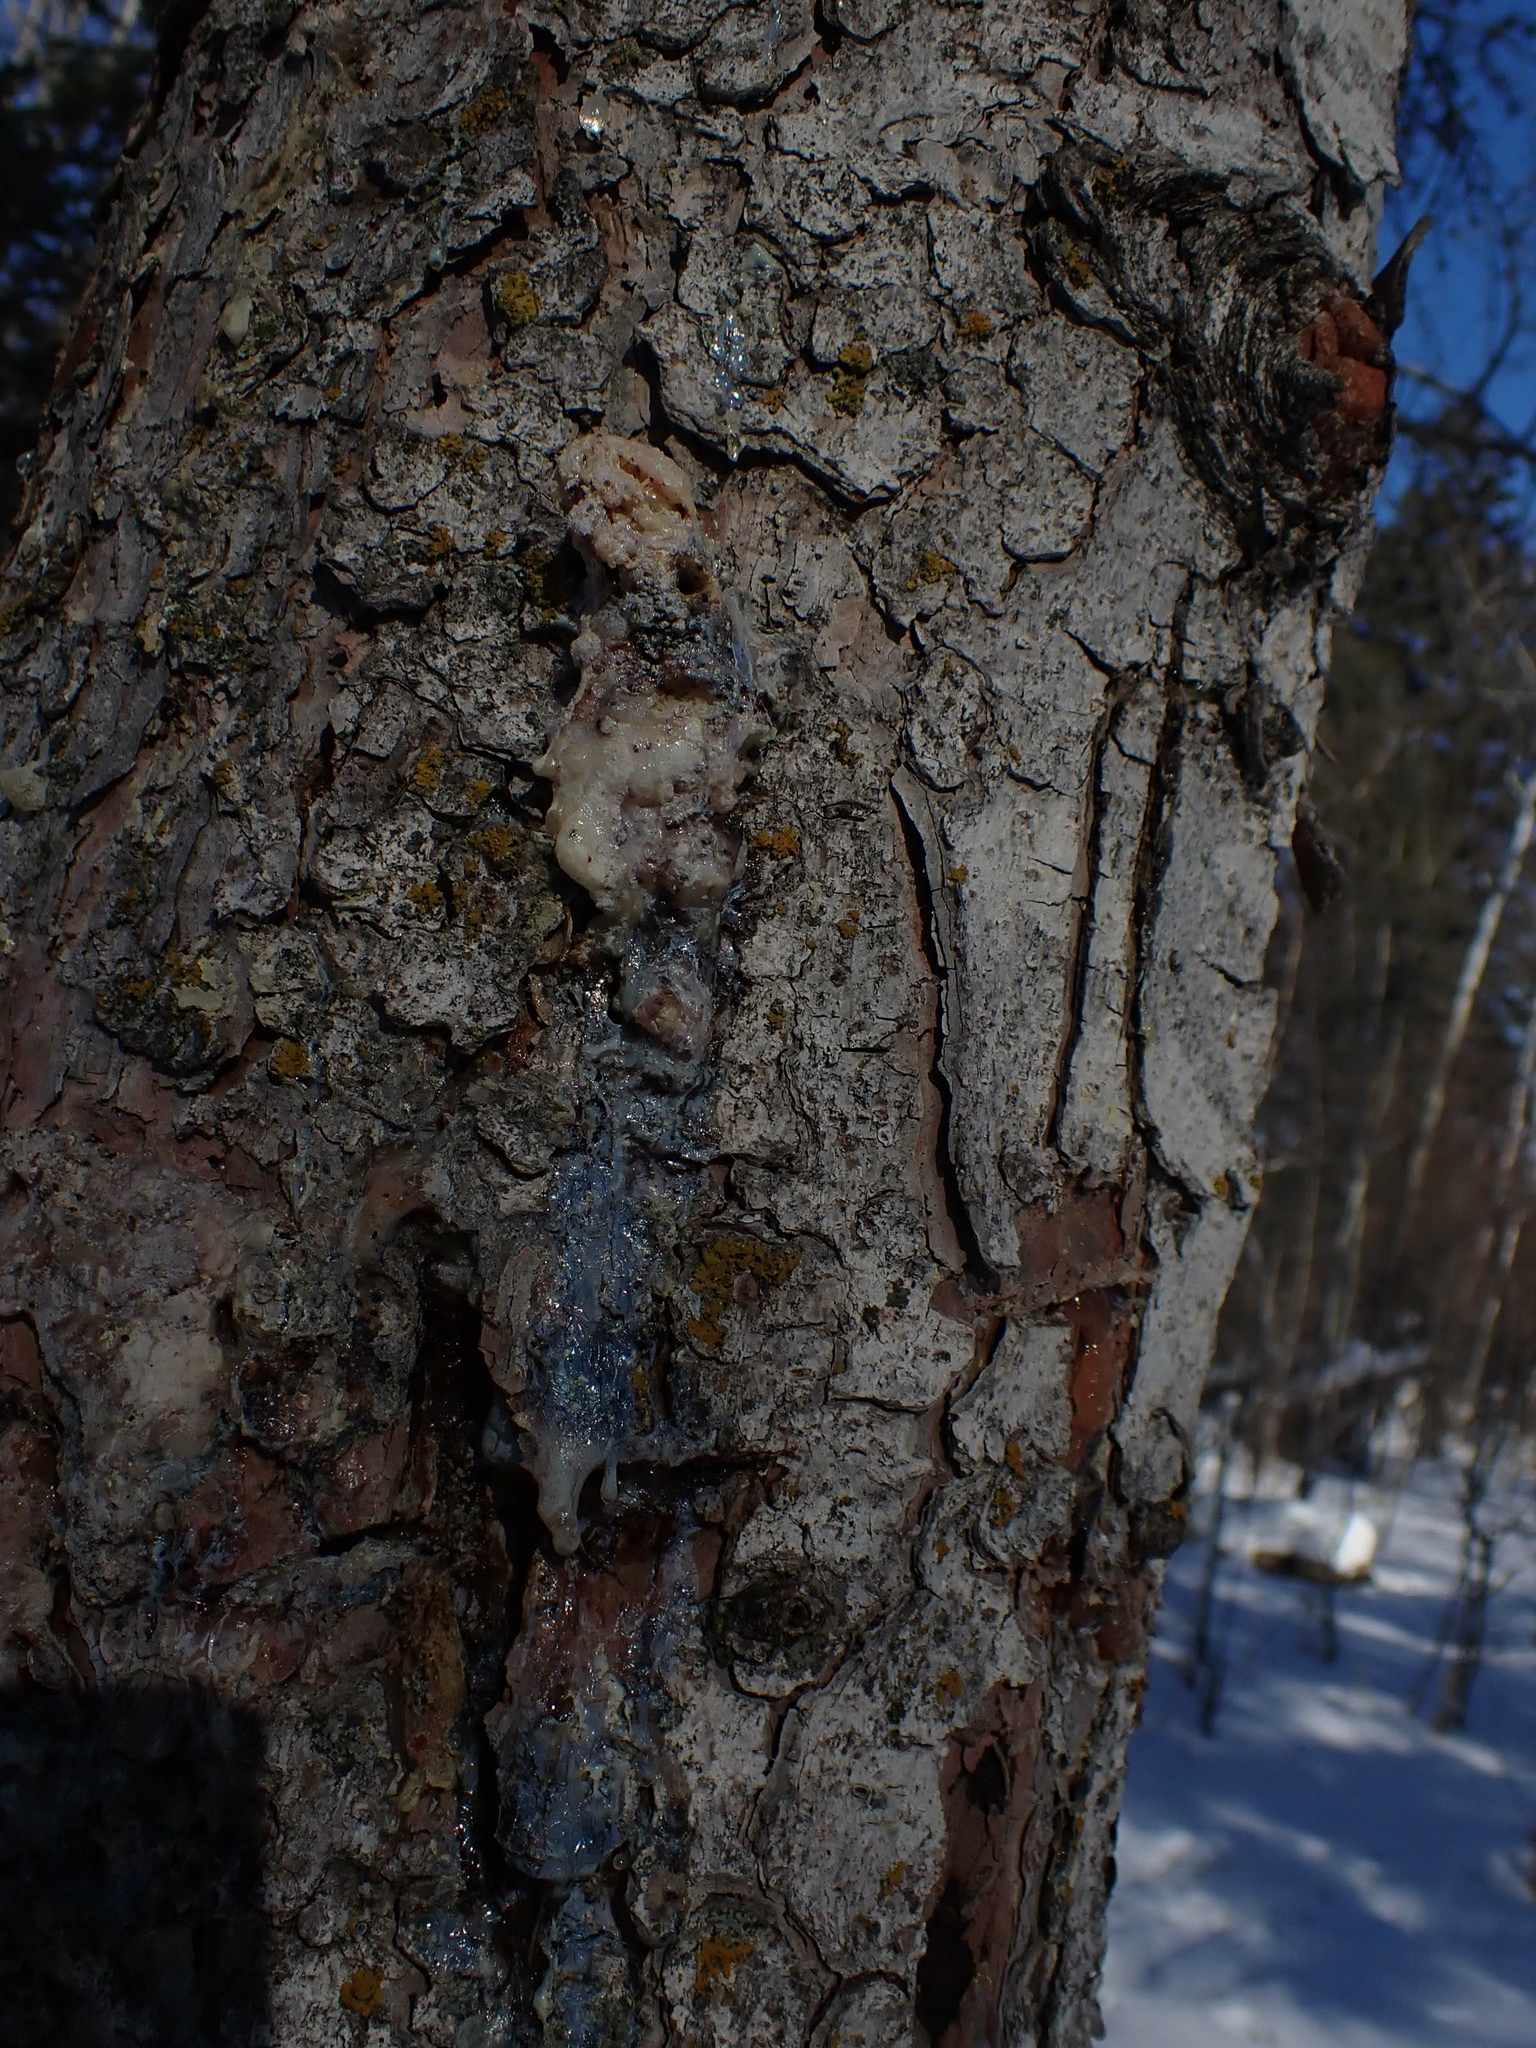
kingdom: Plantae
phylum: Tracheophyta
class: Pinopsida
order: Pinales
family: Pinaceae
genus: Picea
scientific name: Picea glauca
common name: White spruce
